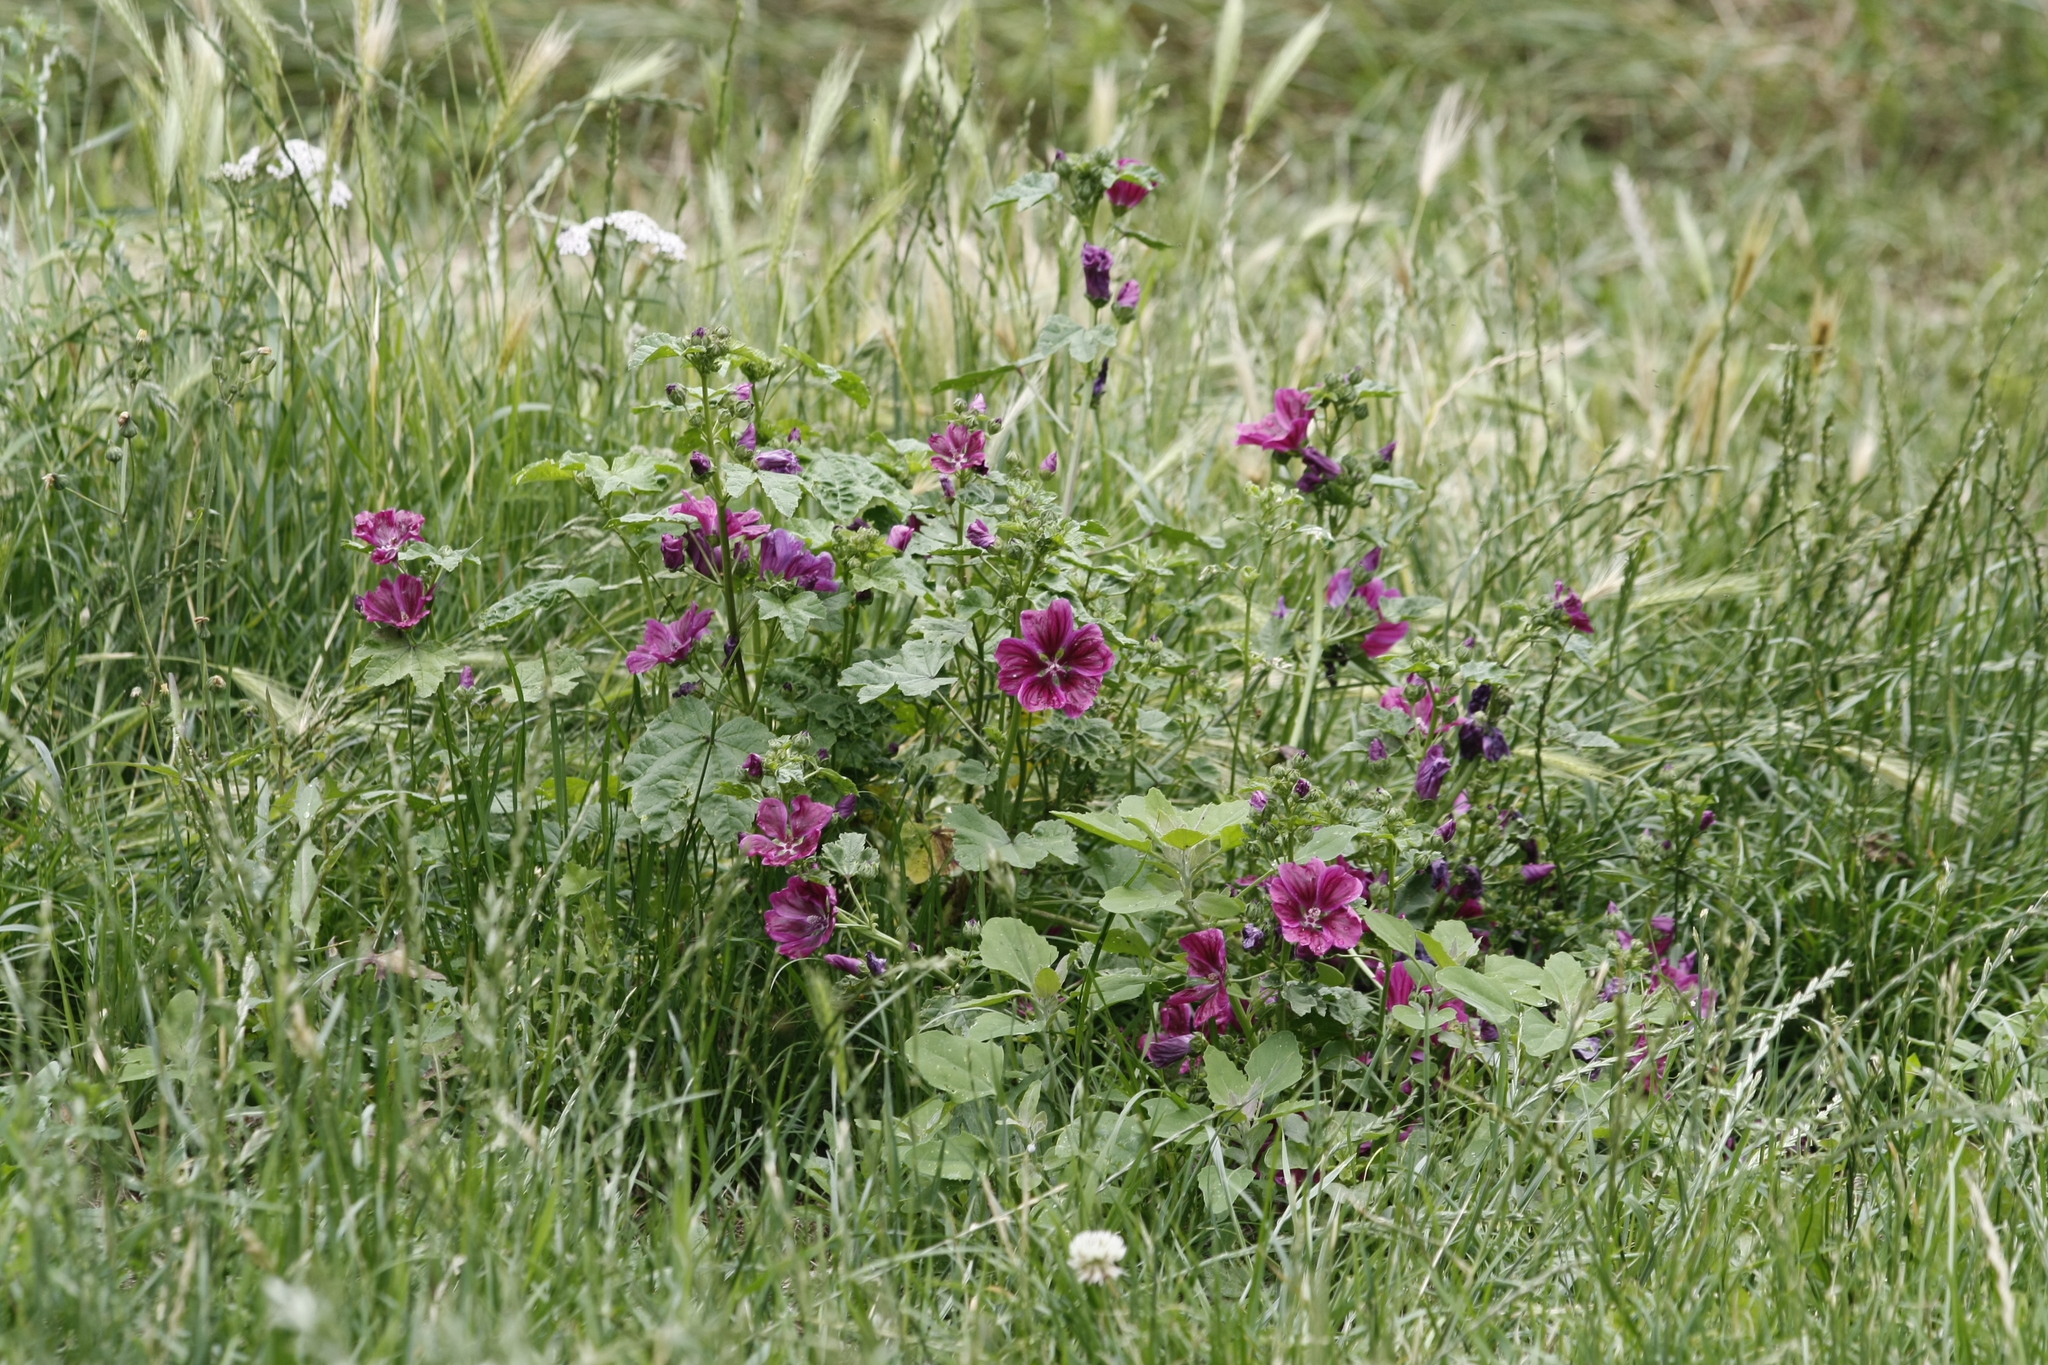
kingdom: Plantae
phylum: Tracheophyta
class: Magnoliopsida
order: Malvales
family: Malvaceae
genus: Malva
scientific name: Malva sylvestris
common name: Common mallow
